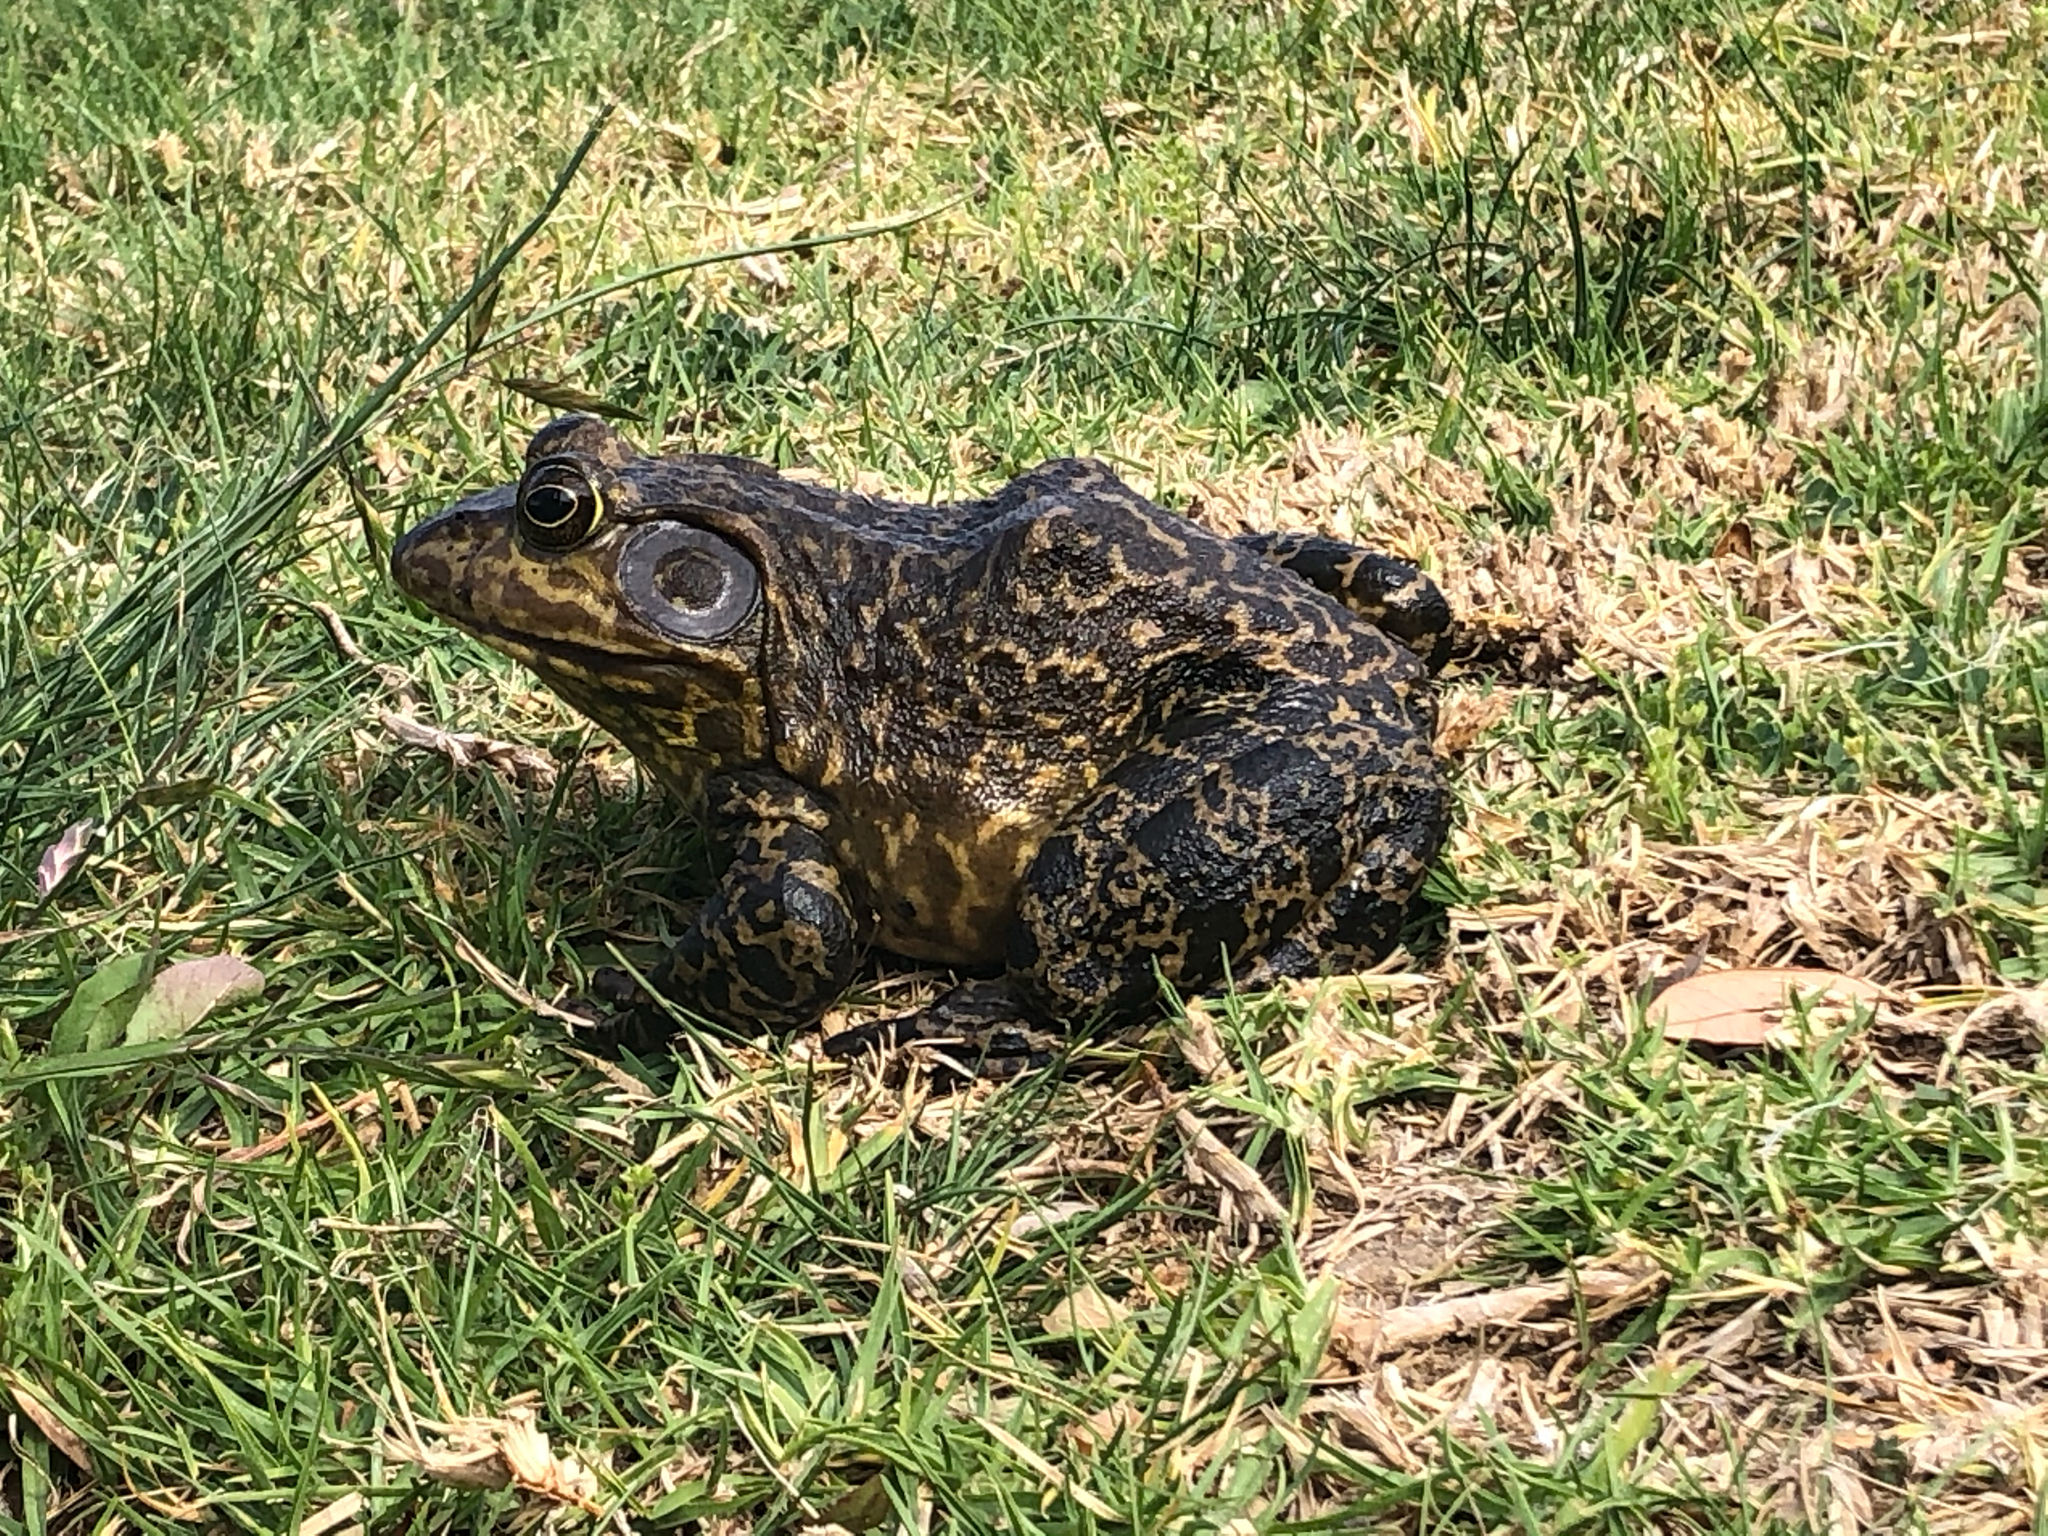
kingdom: Animalia
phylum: Chordata
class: Amphibia
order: Anura
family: Ranidae
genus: Lithobates
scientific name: Lithobates catesbeianus
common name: American bullfrog
